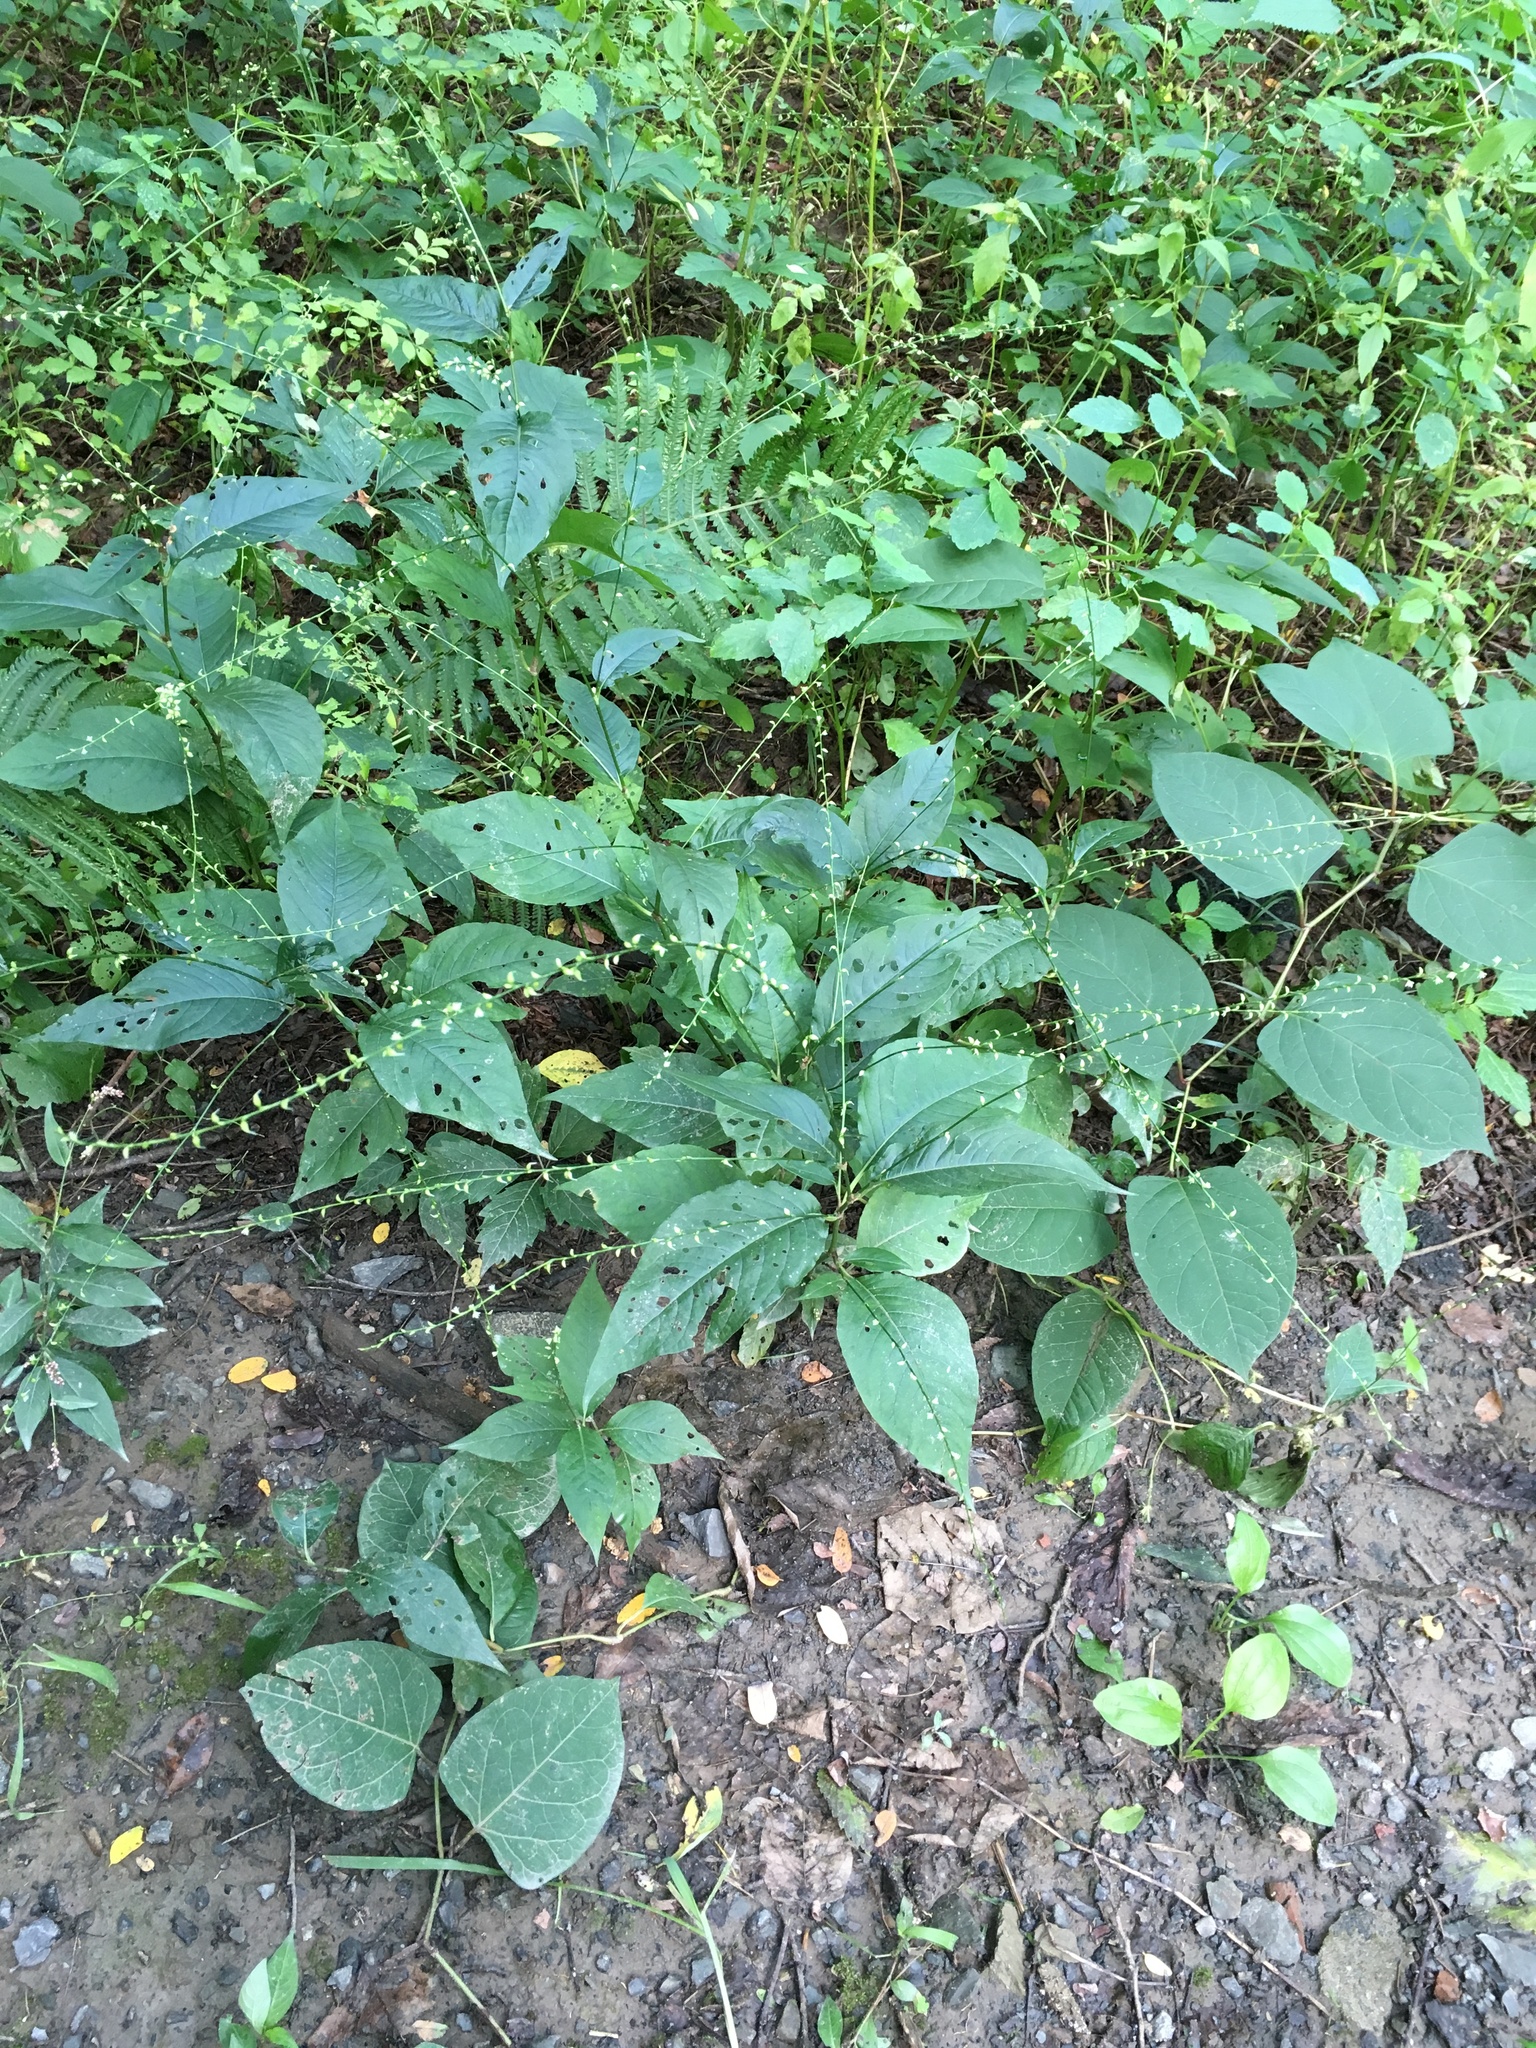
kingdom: Plantae
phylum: Tracheophyta
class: Magnoliopsida
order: Caryophyllales
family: Polygonaceae
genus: Persicaria
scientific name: Persicaria virginiana
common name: Jumpseed
